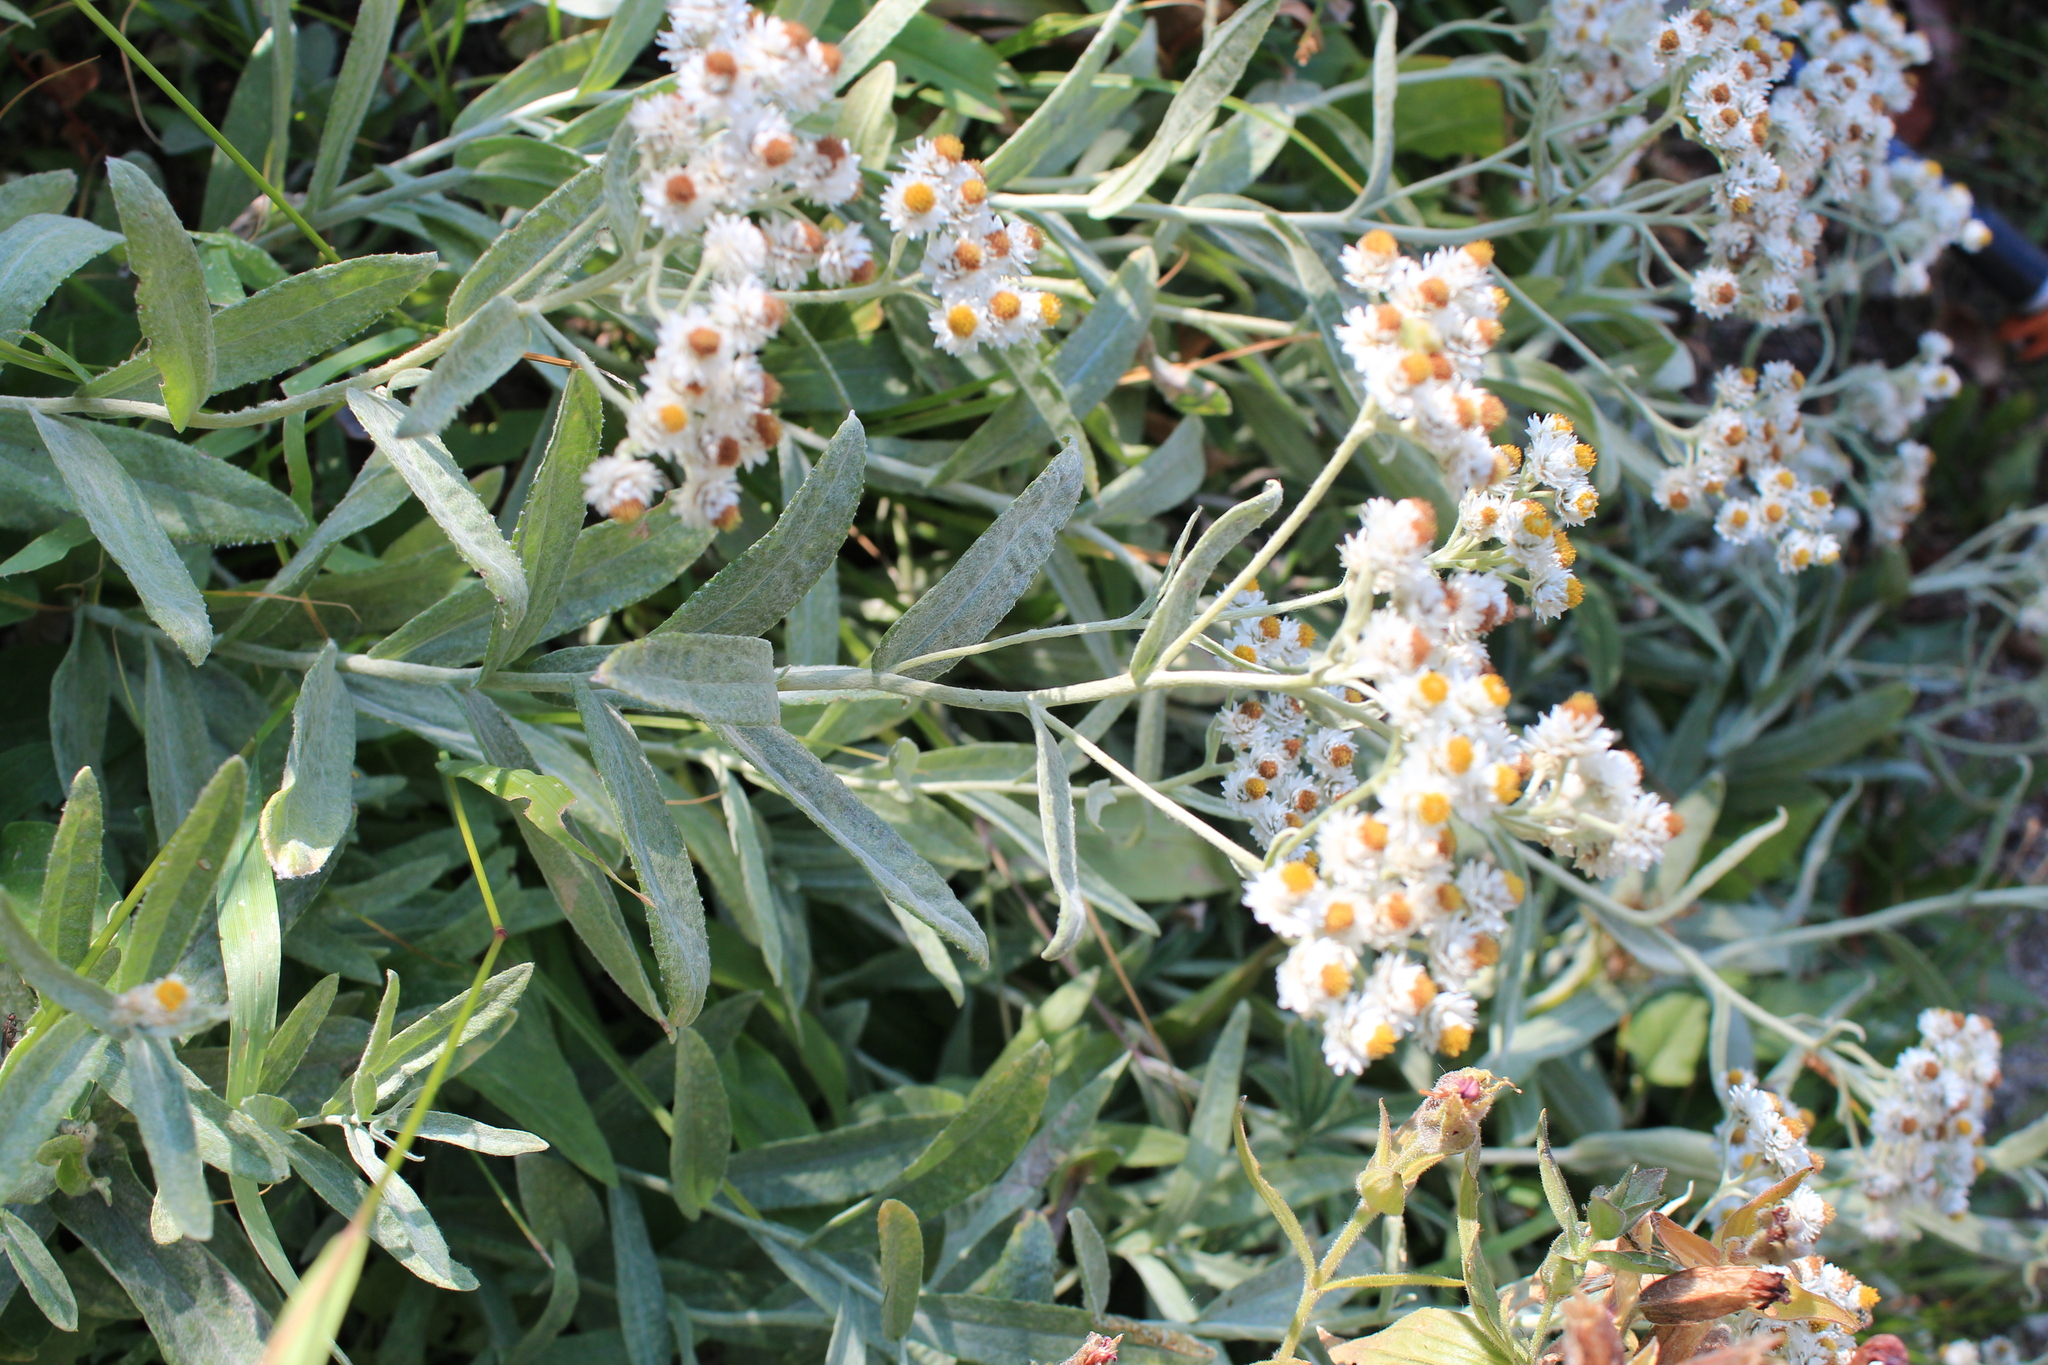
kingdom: Plantae
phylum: Tracheophyta
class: Magnoliopsida
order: Asterales
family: Asteraceae
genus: Anaphalis
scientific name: Anaphalis margaritacea
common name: Pearly everlasting
